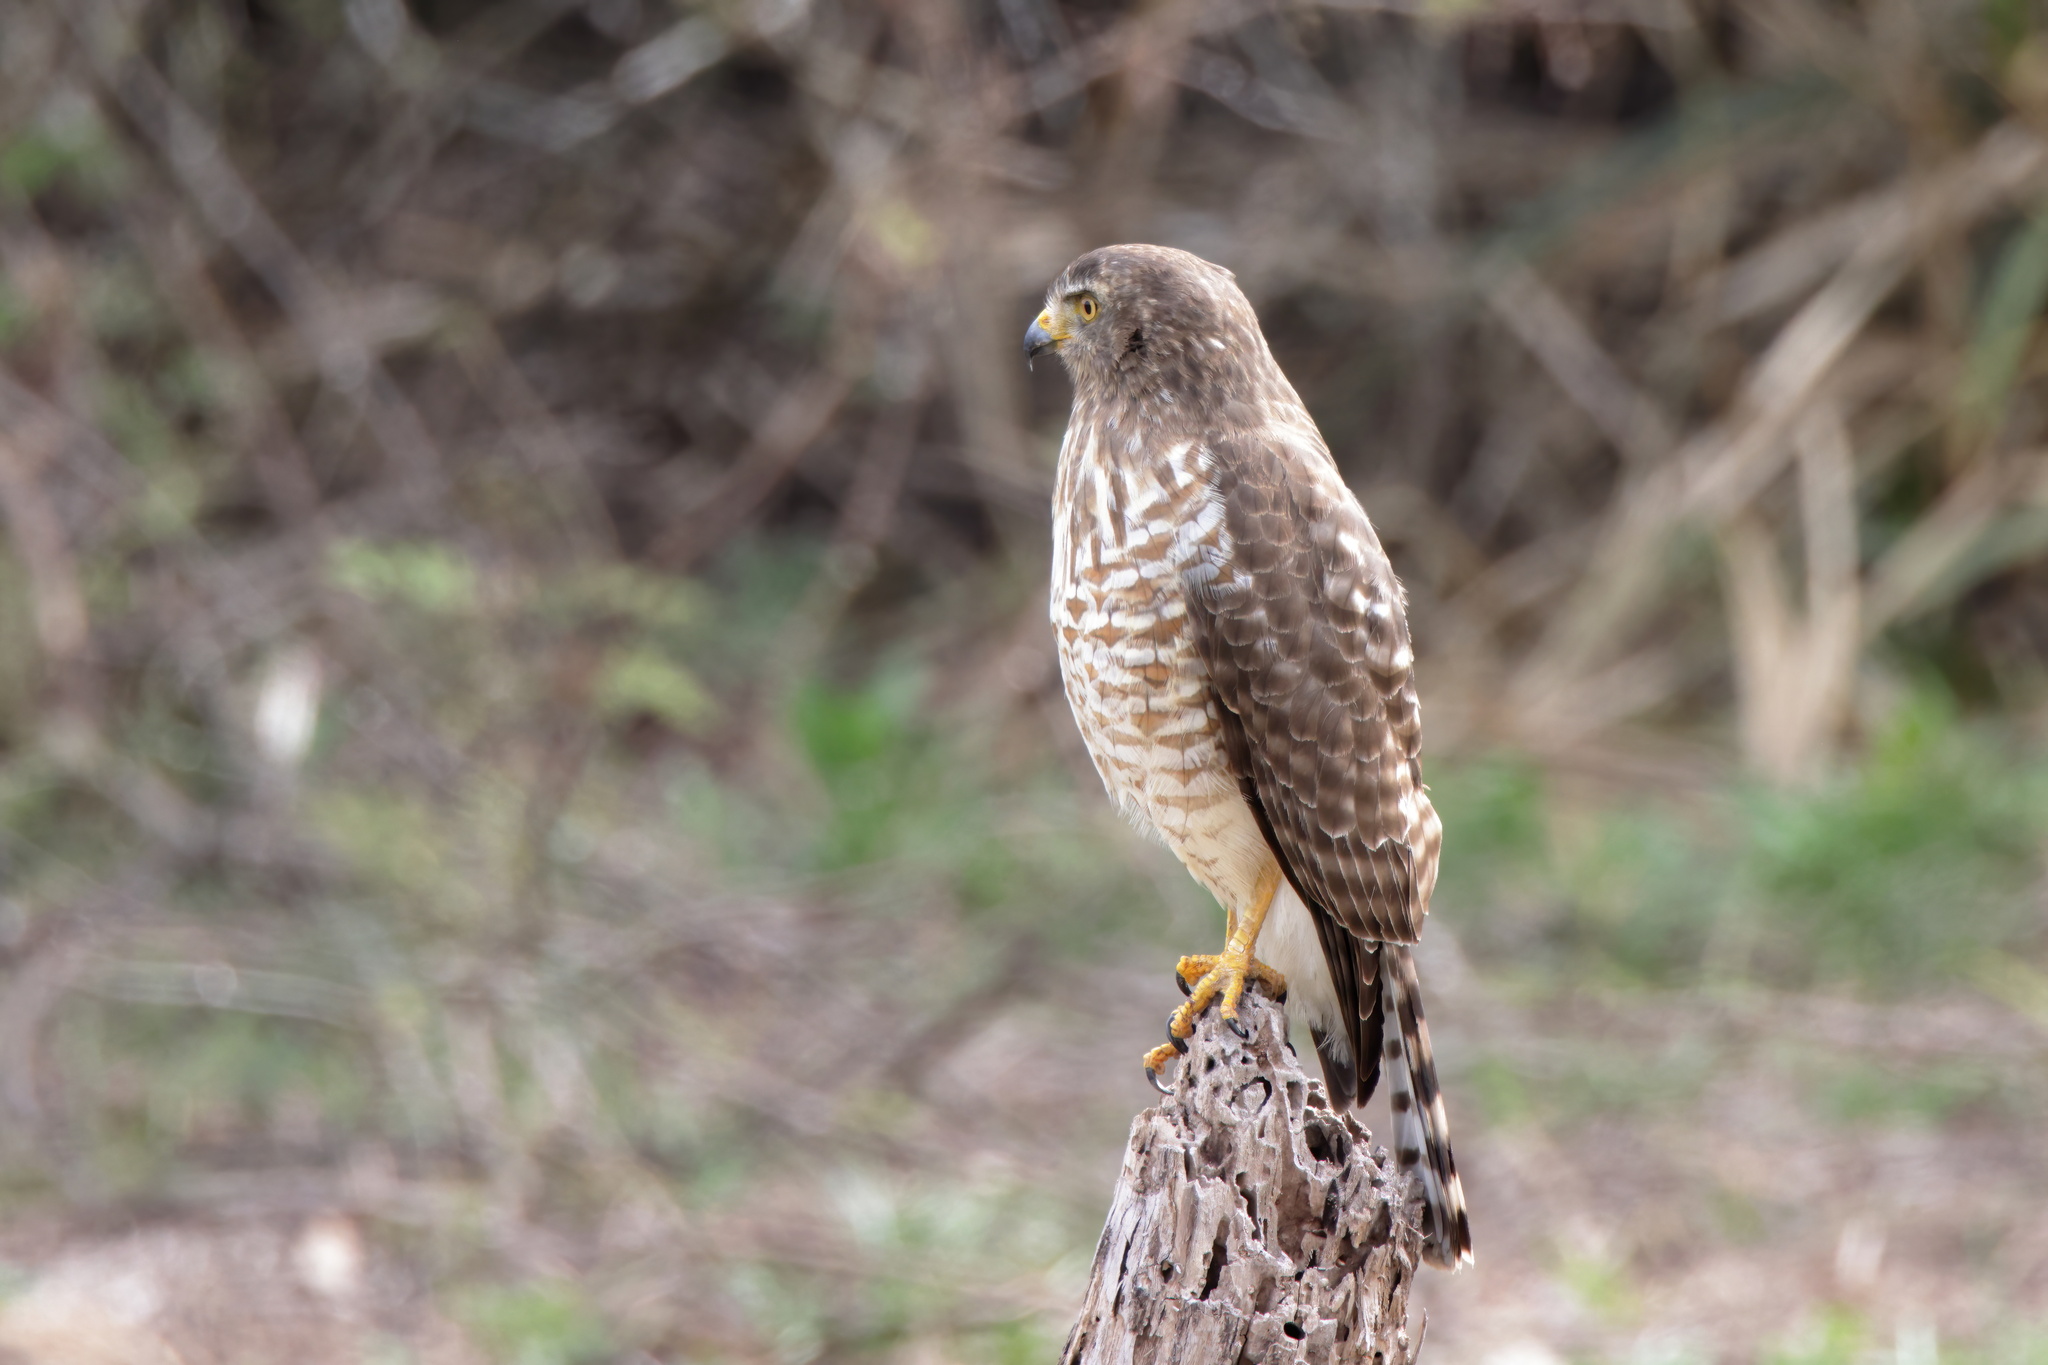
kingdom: Animalia
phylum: Chordata
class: Aves
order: Accipitriformes
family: Accipitridae
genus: Rupornis
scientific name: Rupornis magnirostris
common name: Roadside hawk
